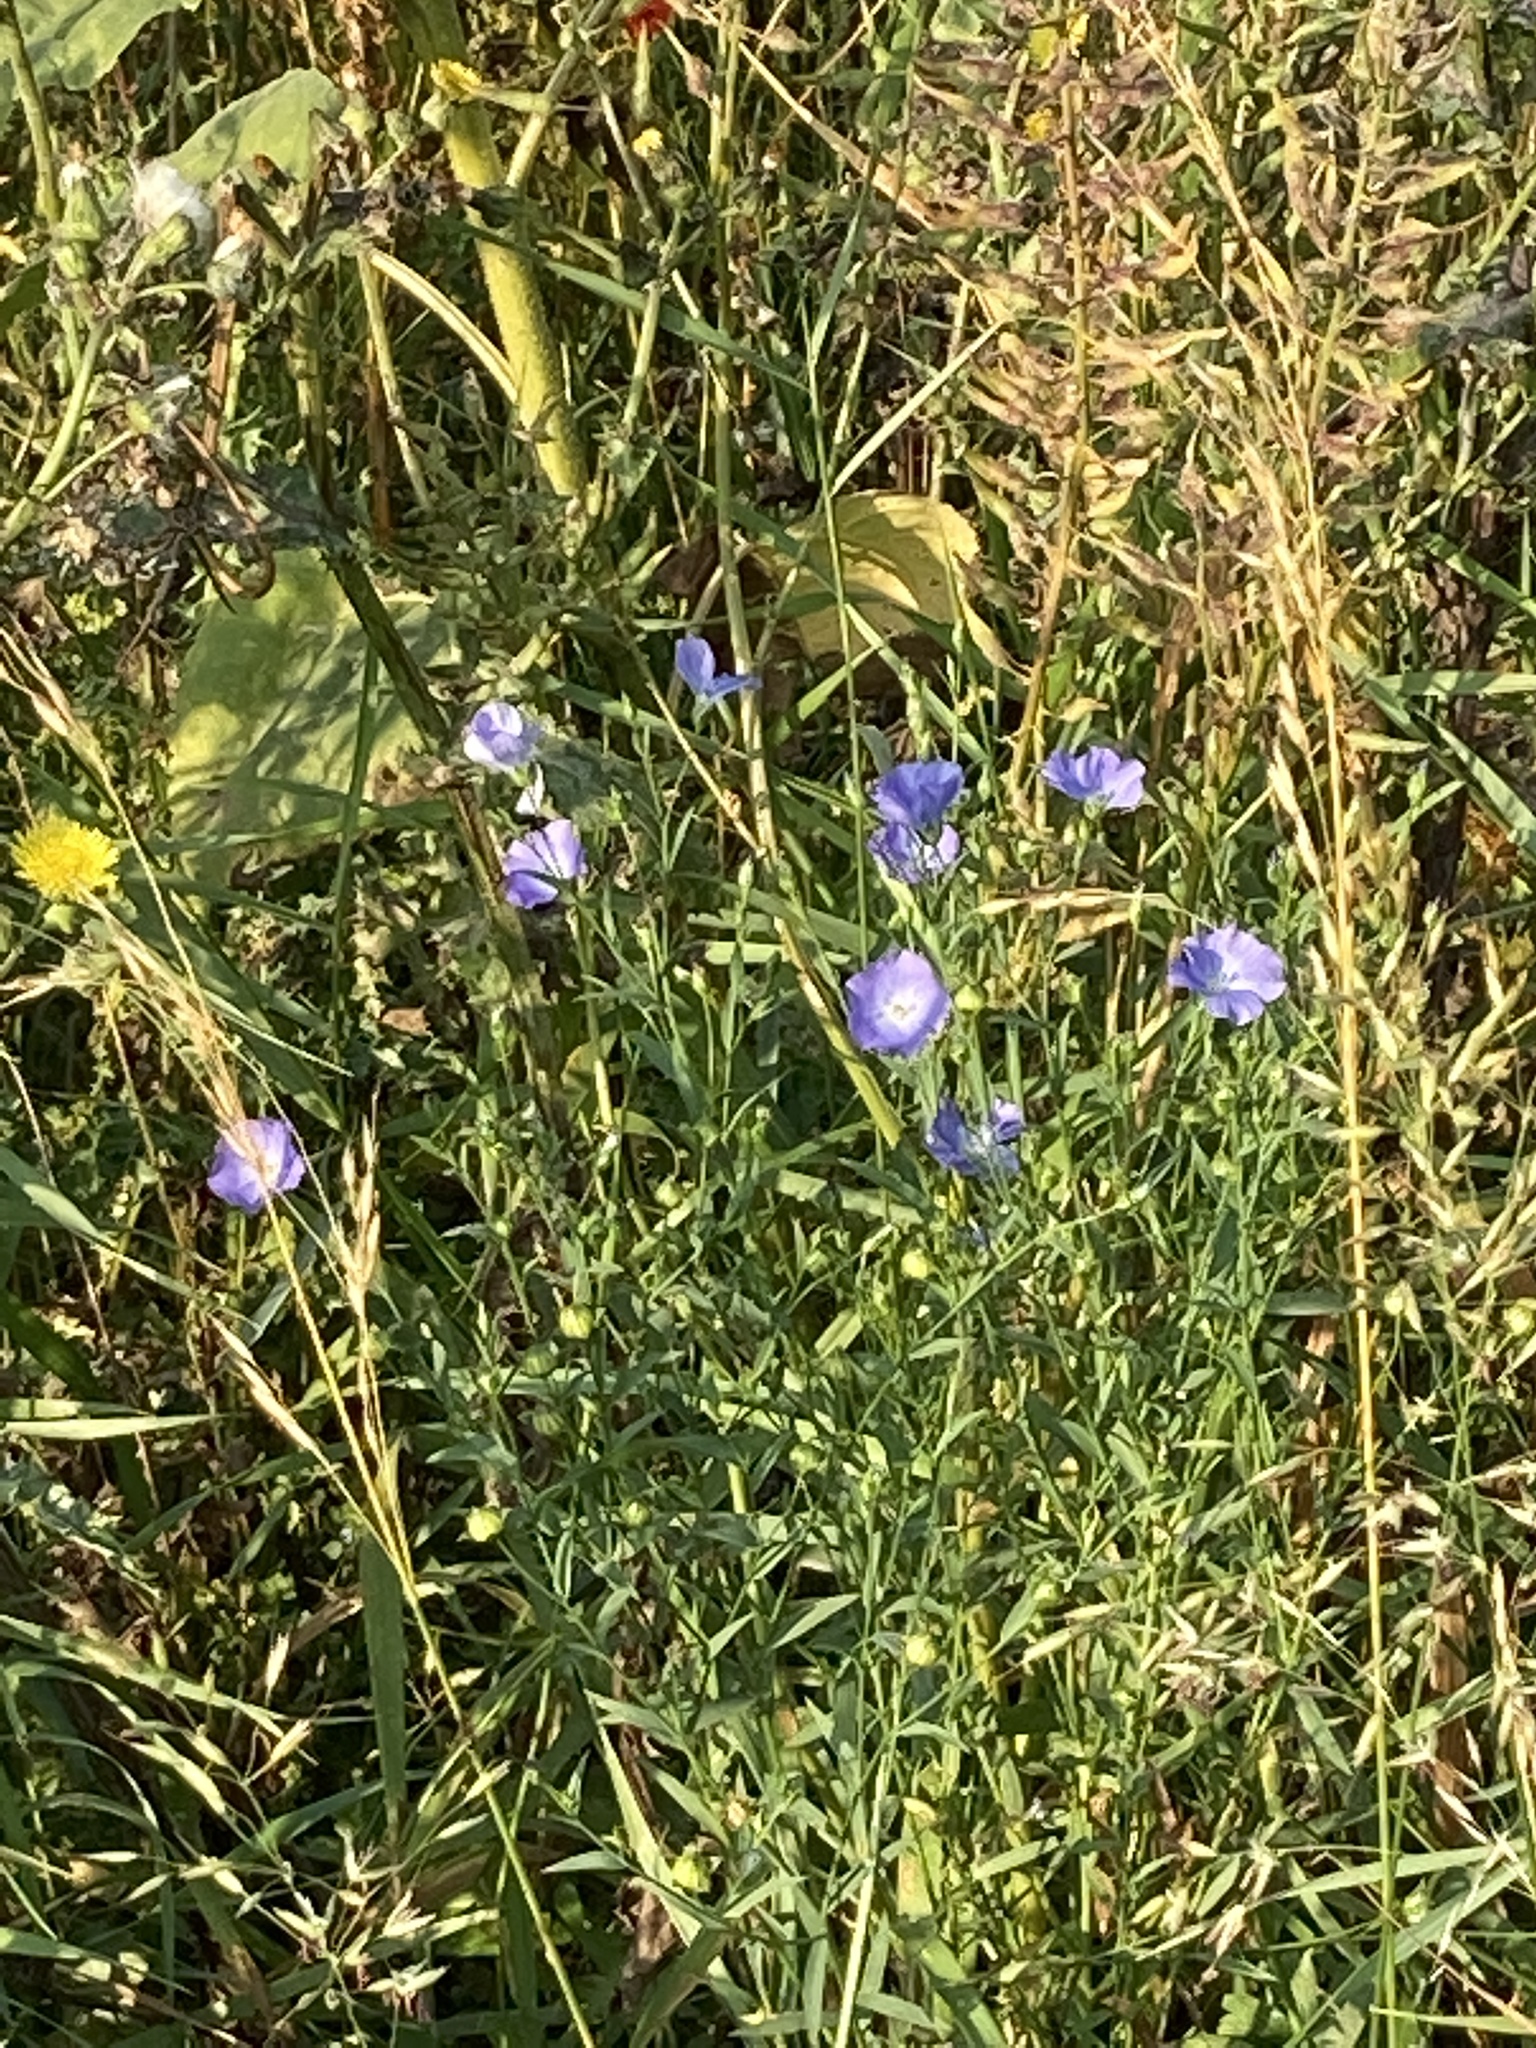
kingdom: Plantae
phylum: Tracheophyta
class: Magnoliopsida
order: Malpighiales
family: Linaceae
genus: Linum
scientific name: Linum usitatissimum
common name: Flax
